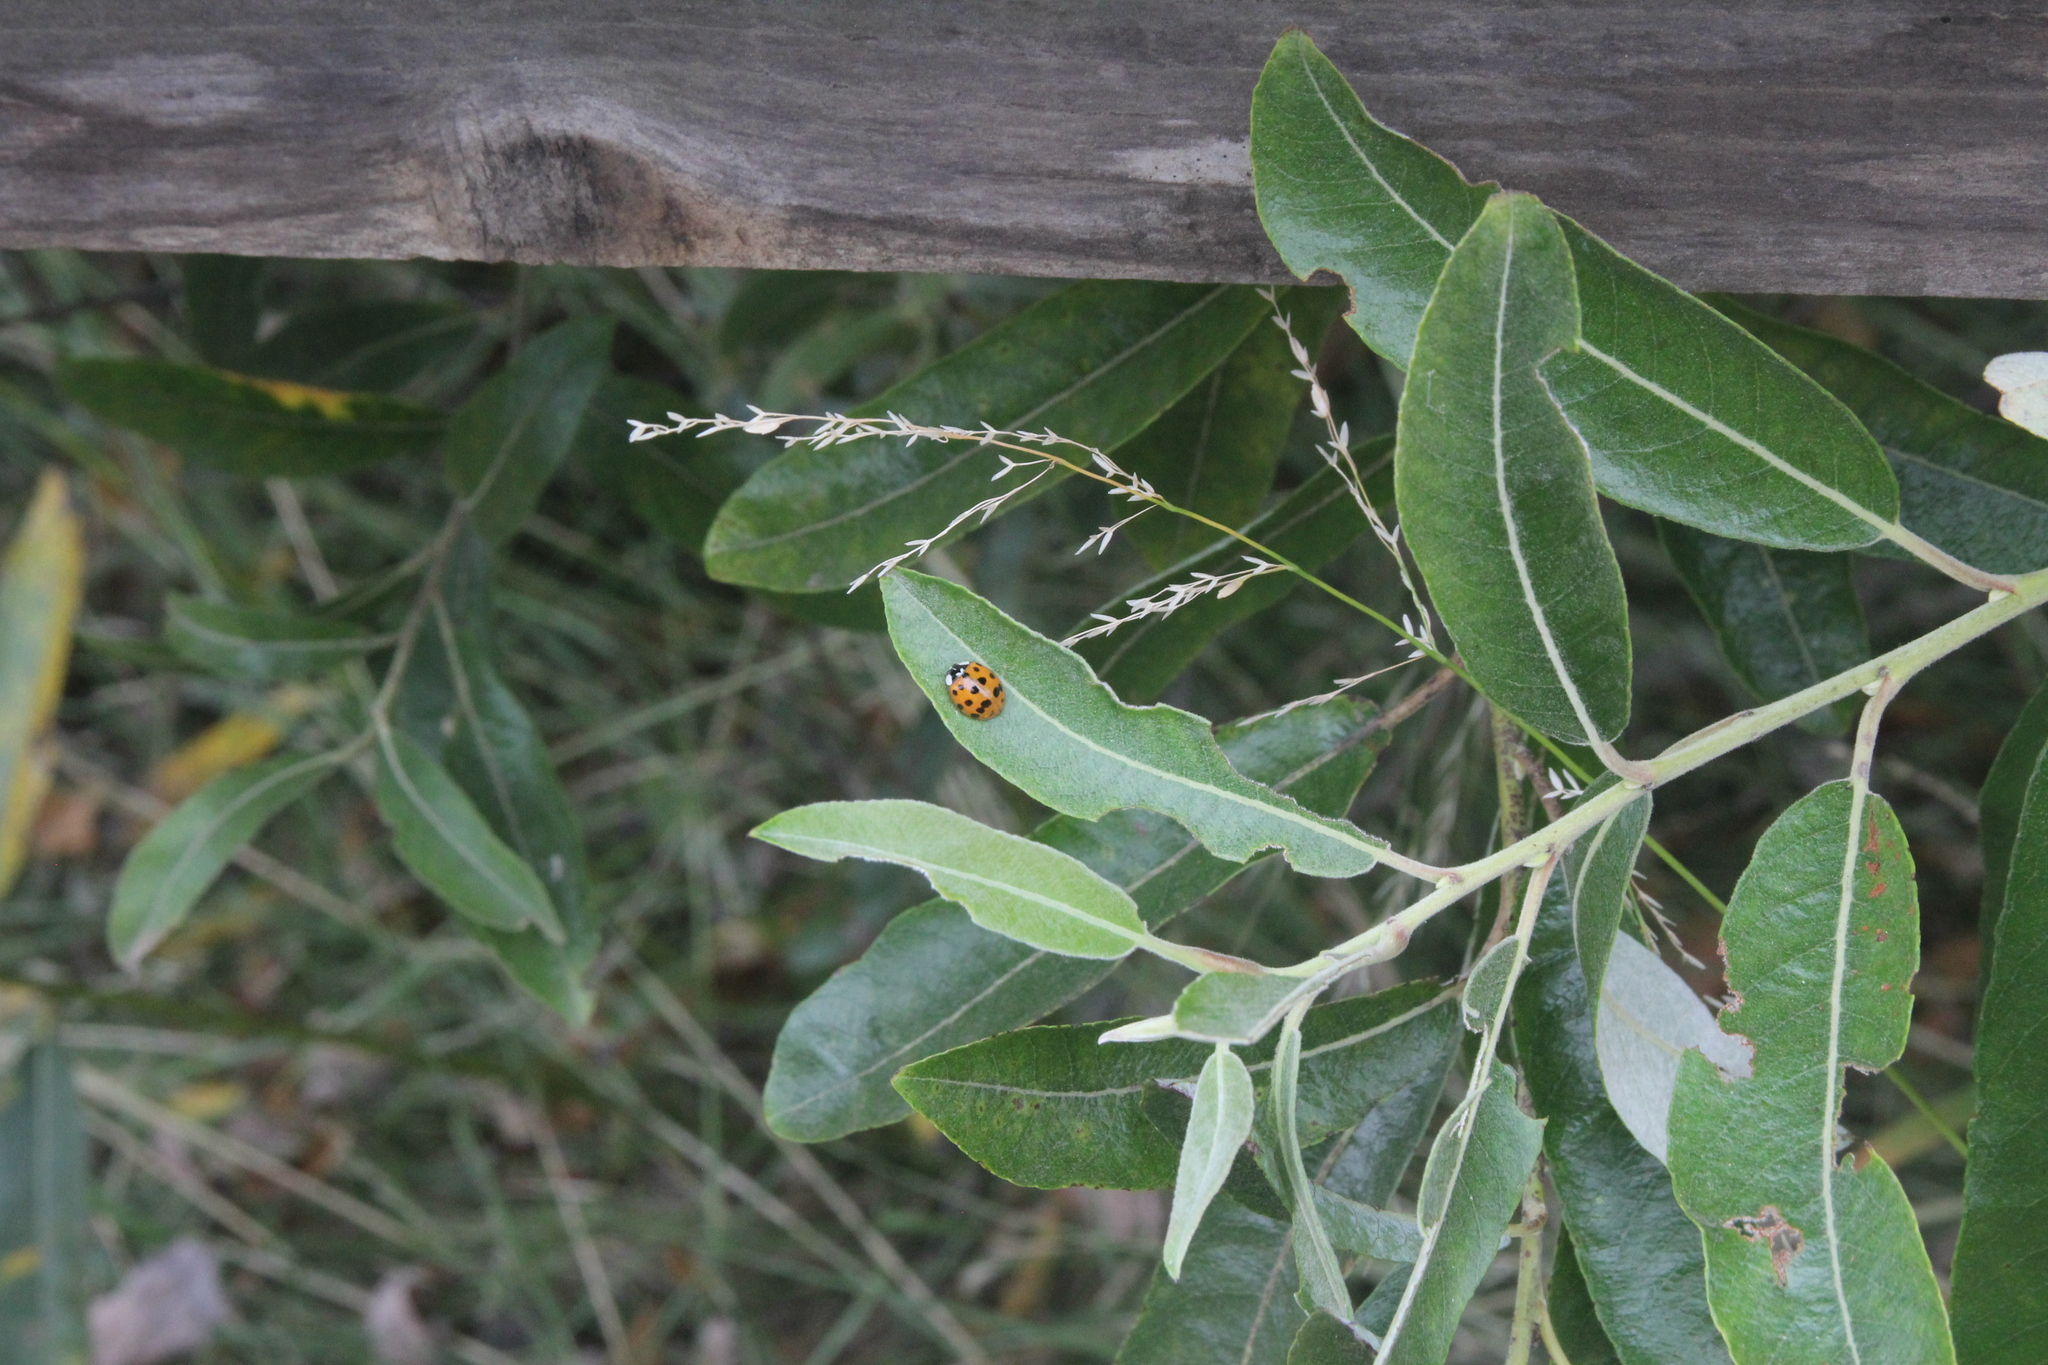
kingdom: Animalia
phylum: Arthropoda
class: Insecta
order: Coleoptera
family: Coccinellidae
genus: Harmonia
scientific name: Harmonia axyridis
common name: Harlequin ladybird
